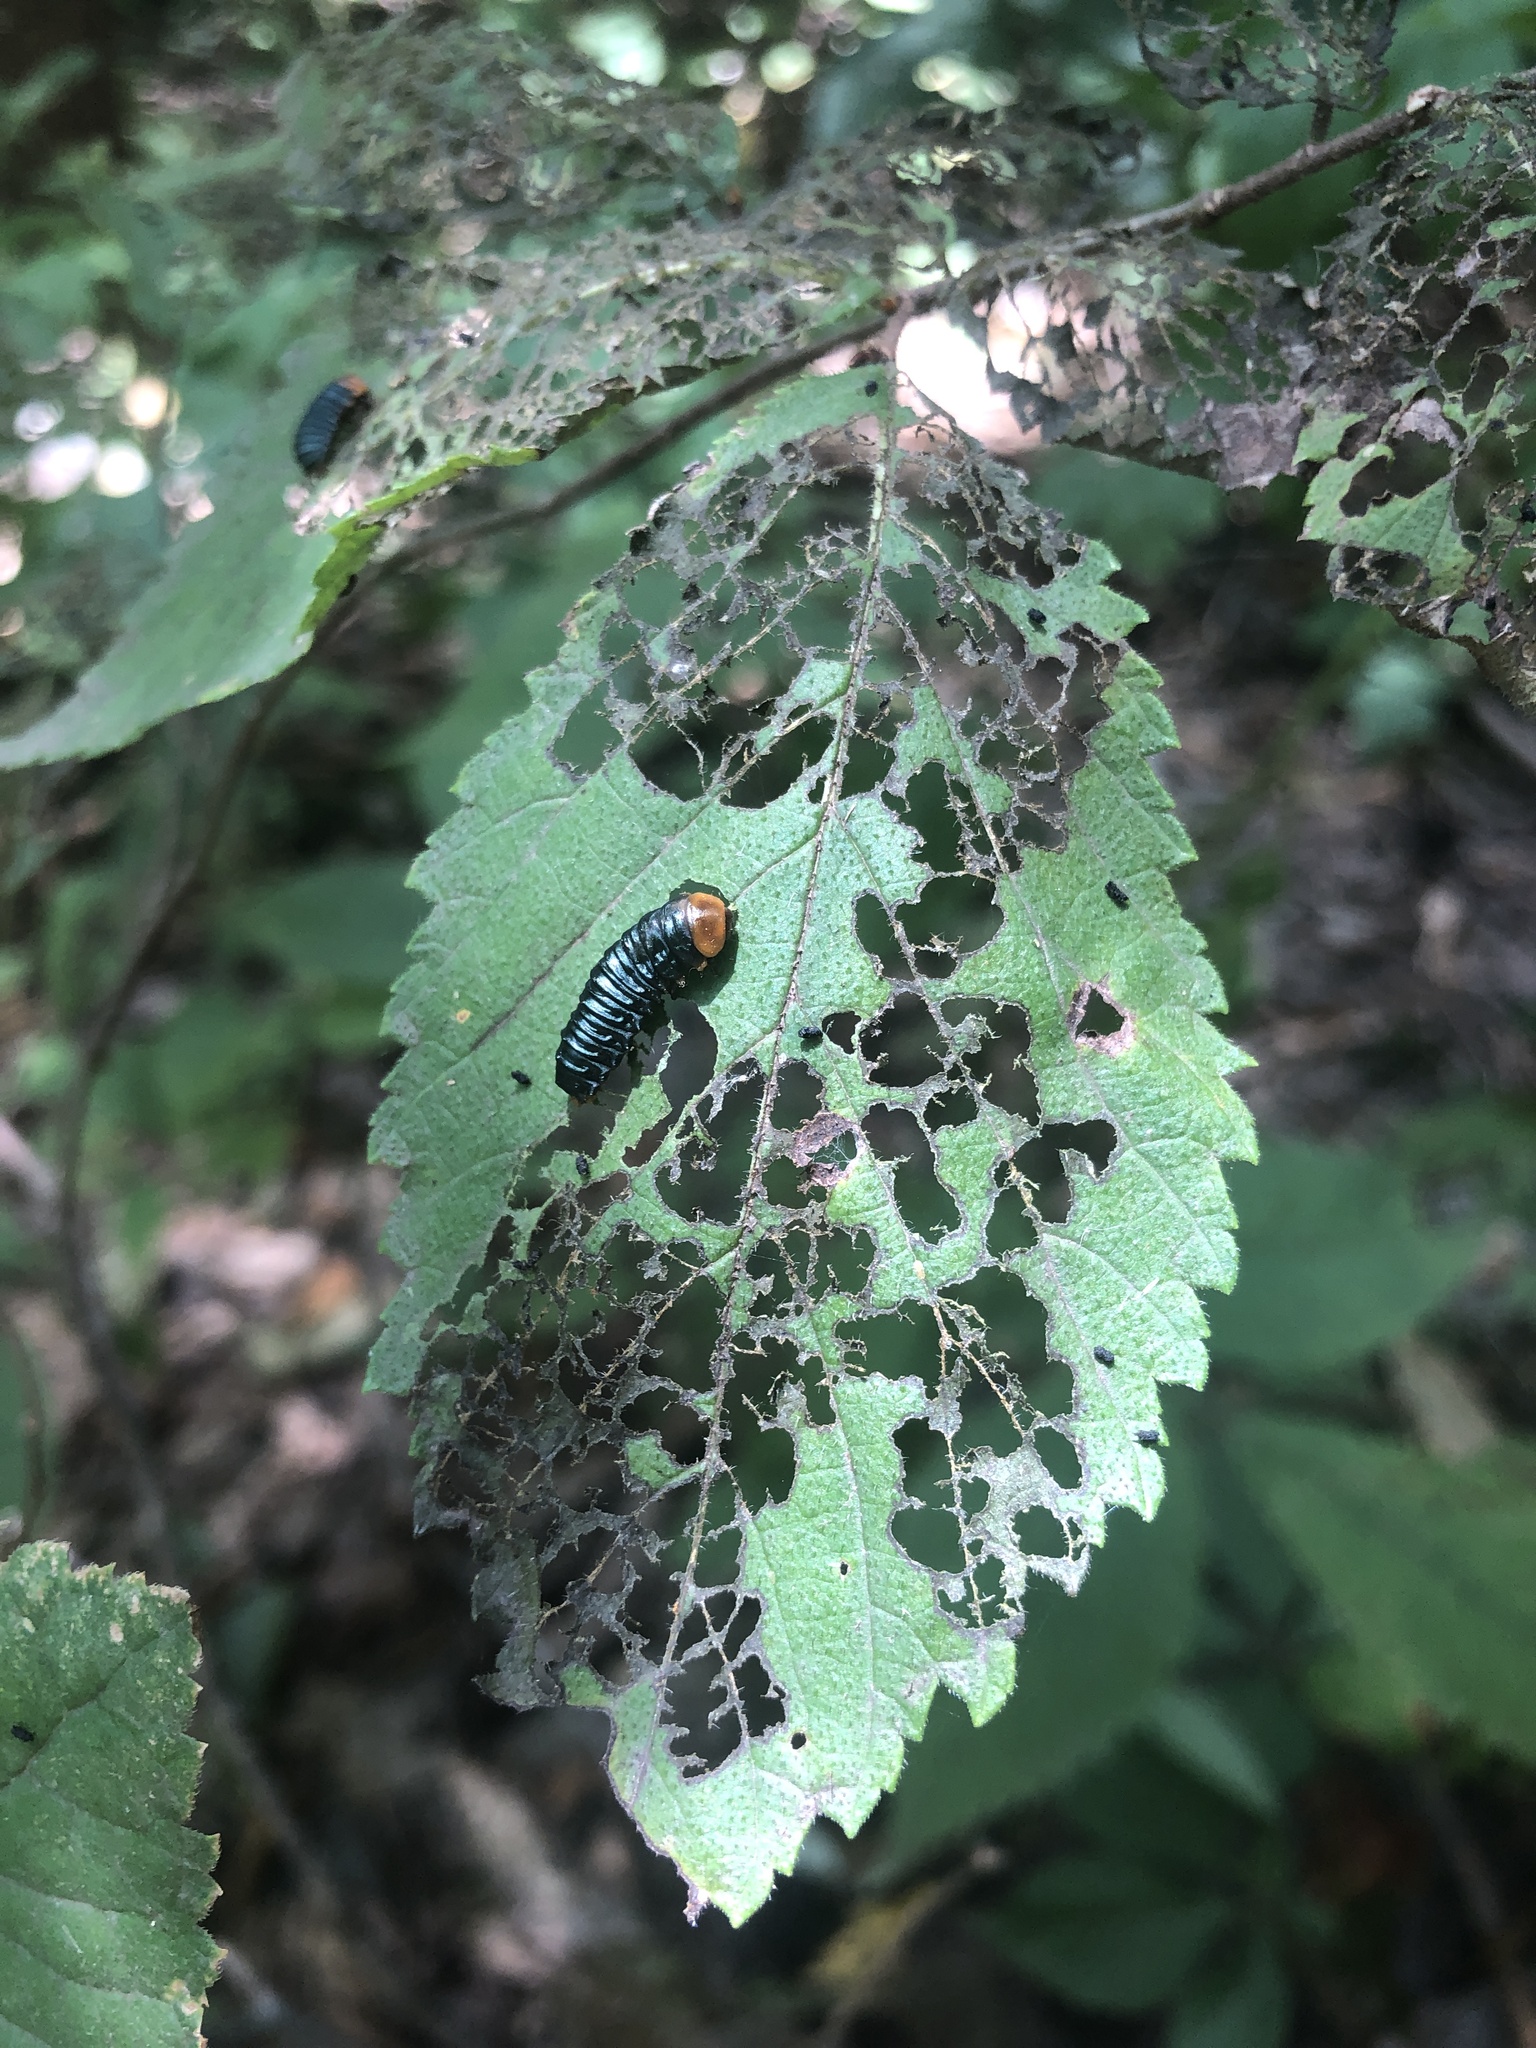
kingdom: Animalia
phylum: Arthropoda
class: Insecta
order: Coleoptera
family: Chrysomelidae
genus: Monocesta
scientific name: Monocesta coryli
